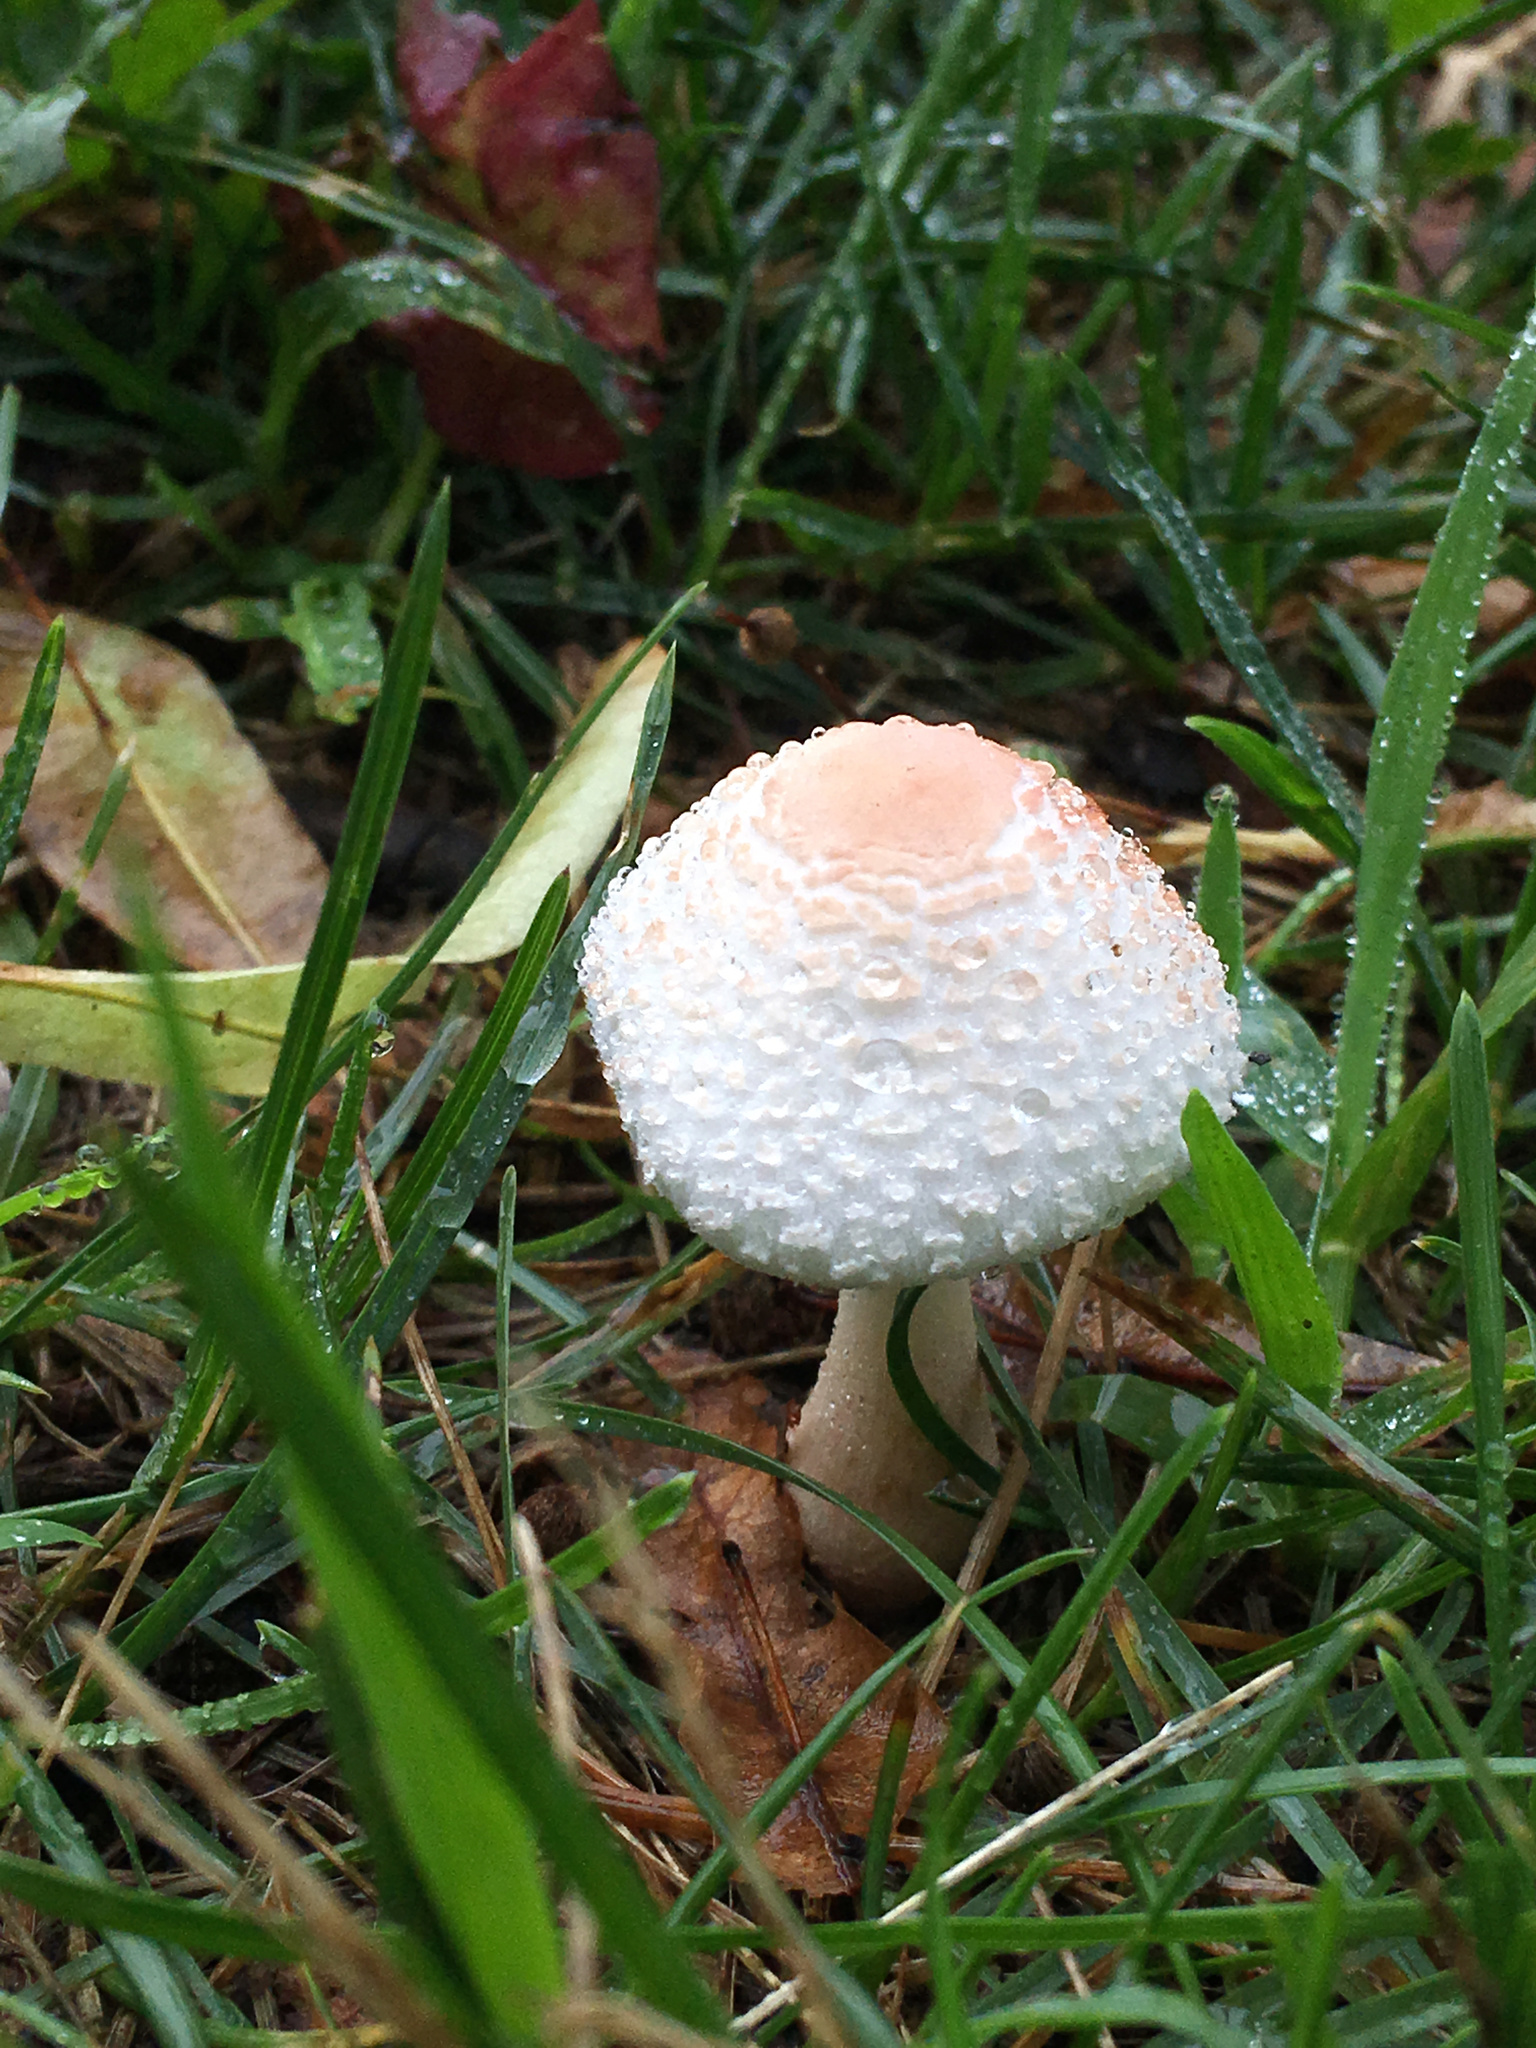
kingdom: Fungi
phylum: Basidiomycota
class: Agaricomycetes
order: Agaricales
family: Agaricaceae
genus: Leucoagaricus
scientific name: Leucoagaricus americanus
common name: Reddening lepiota
